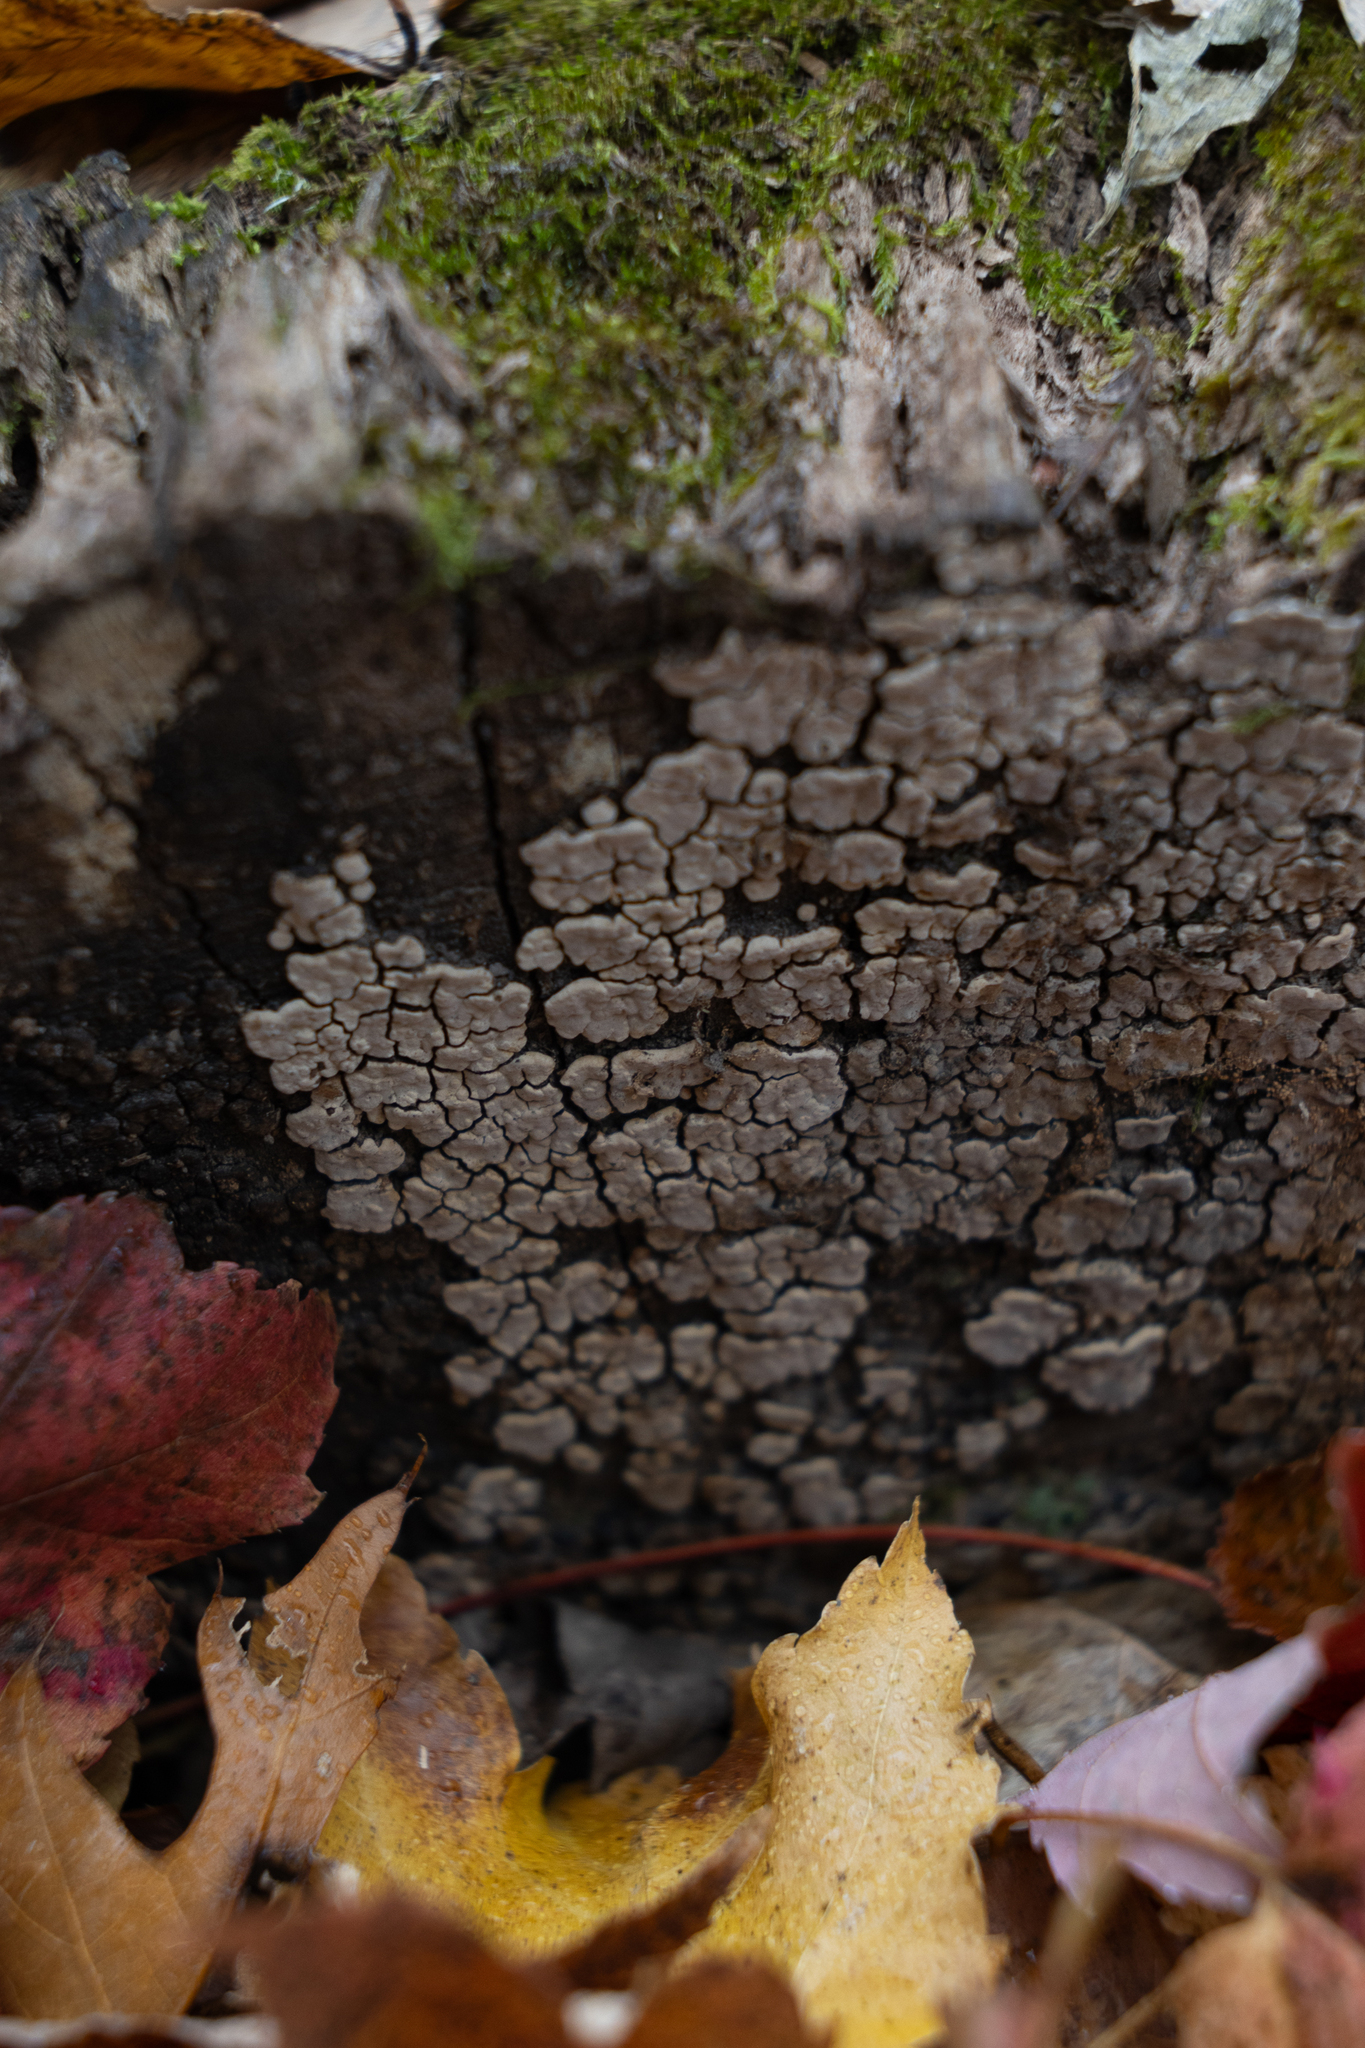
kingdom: Fungi
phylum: Basidiomycota
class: Agaricomycetes
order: Russulales
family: Stereaceae
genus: Xylobolus
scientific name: Xylobolus frustulatus
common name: Ceramic parchment
